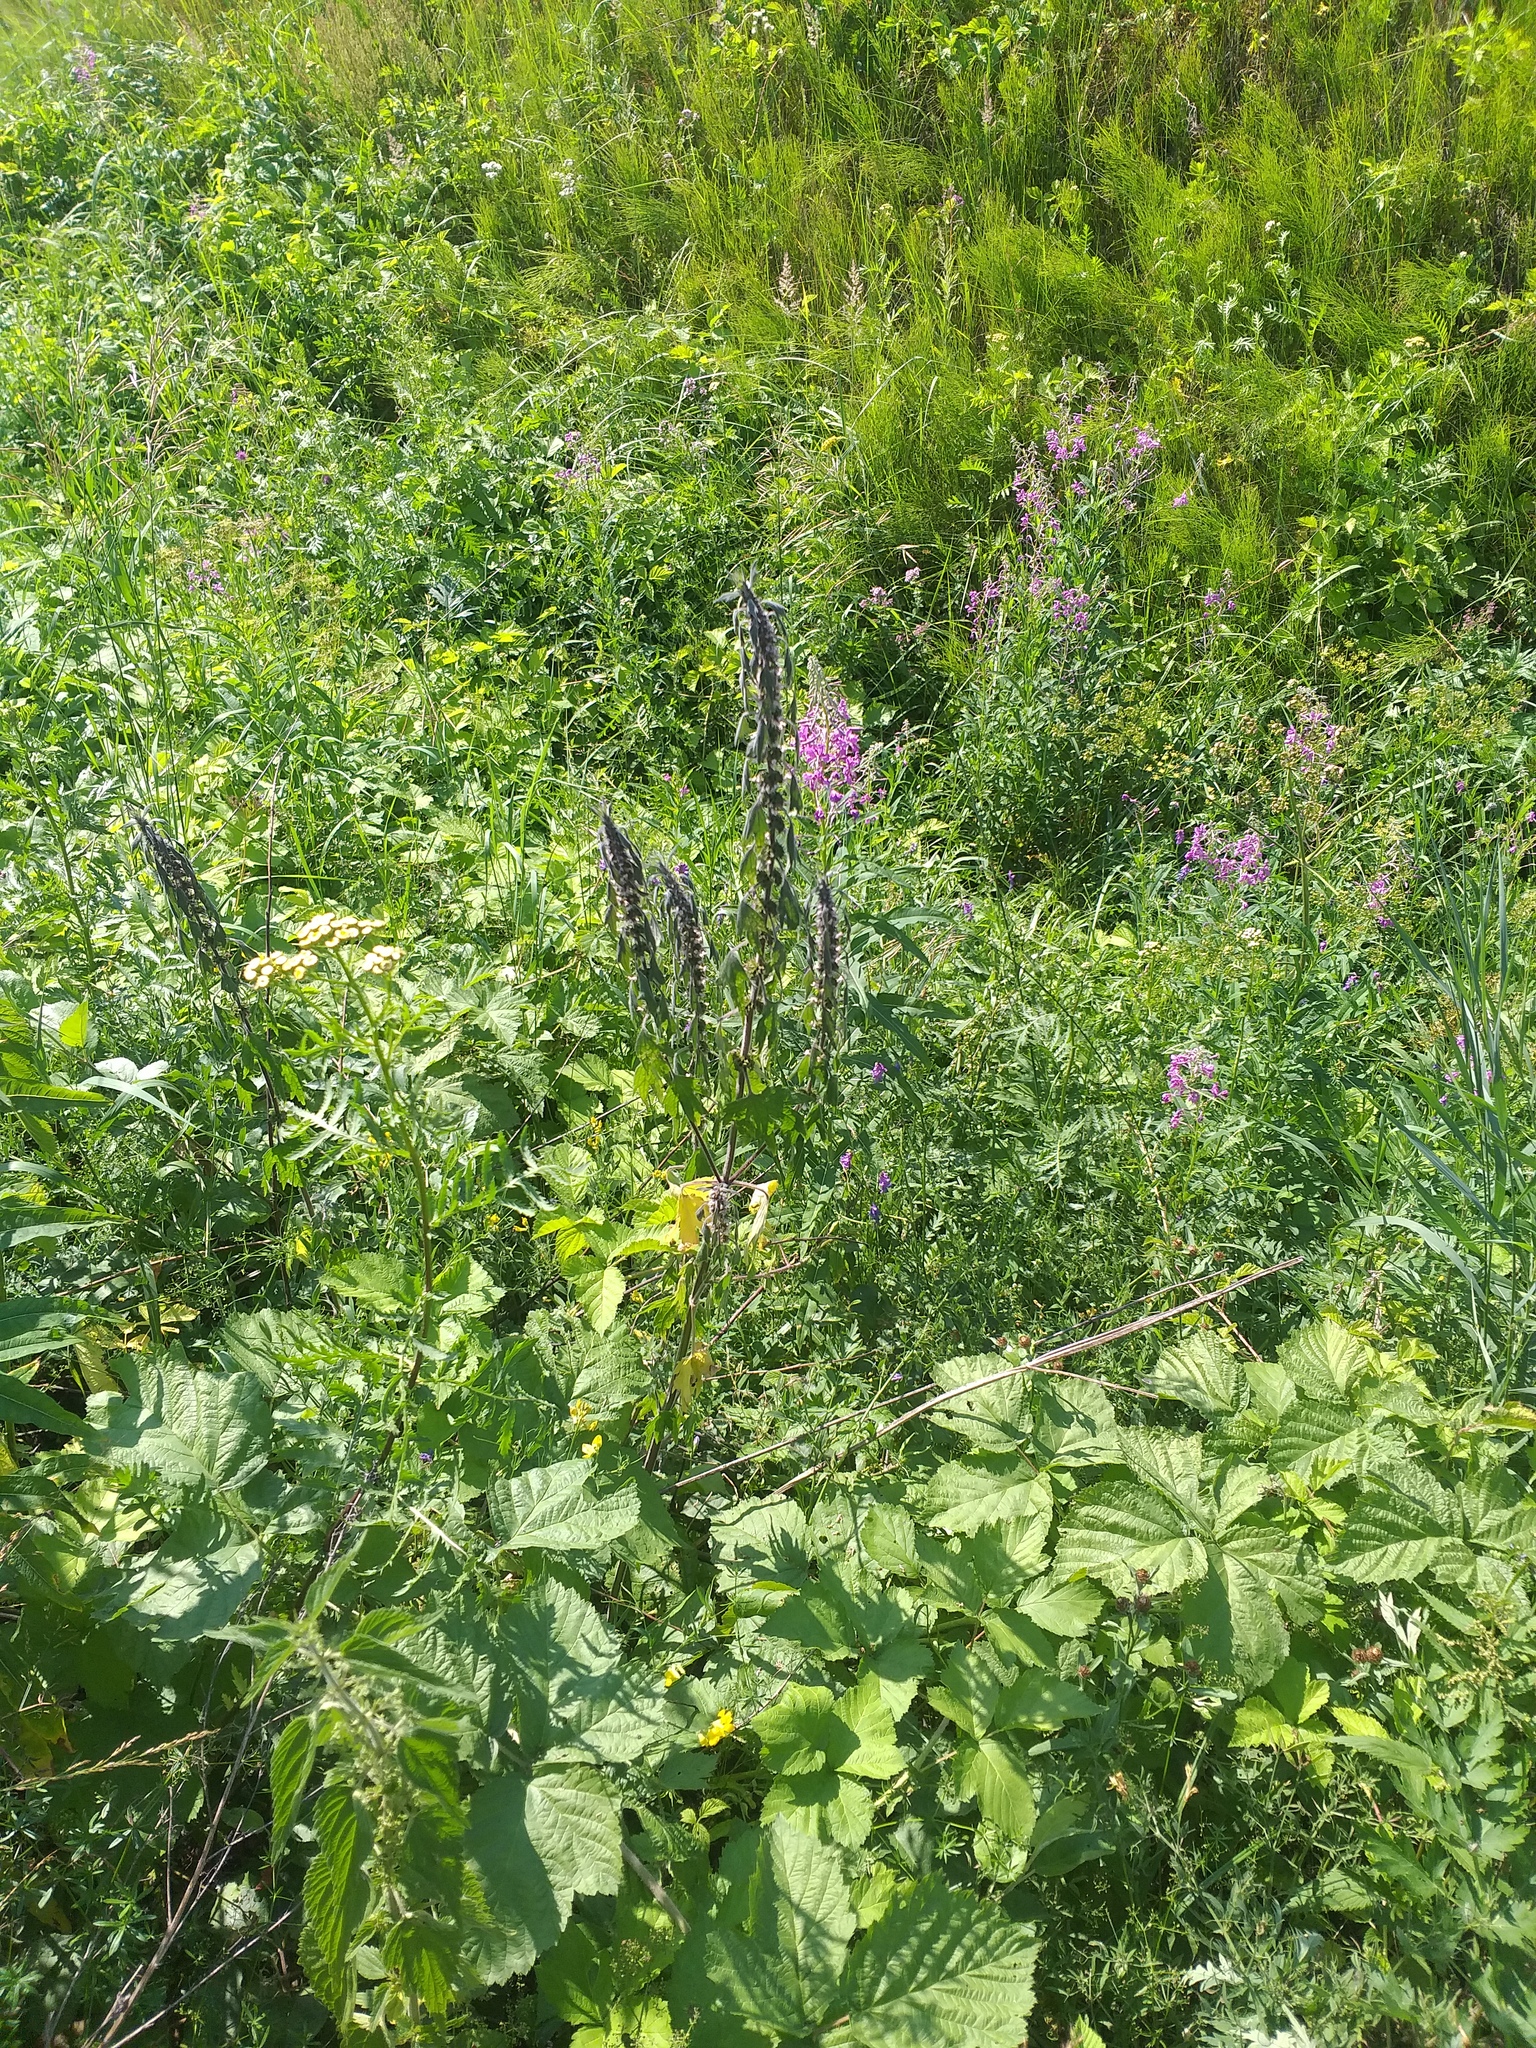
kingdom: Plantae
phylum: Tracheophyta
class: Magnoliopsida
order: Lamiales
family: Lamiaceae
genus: Leonurus
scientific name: Leonurus quinquelobatus
